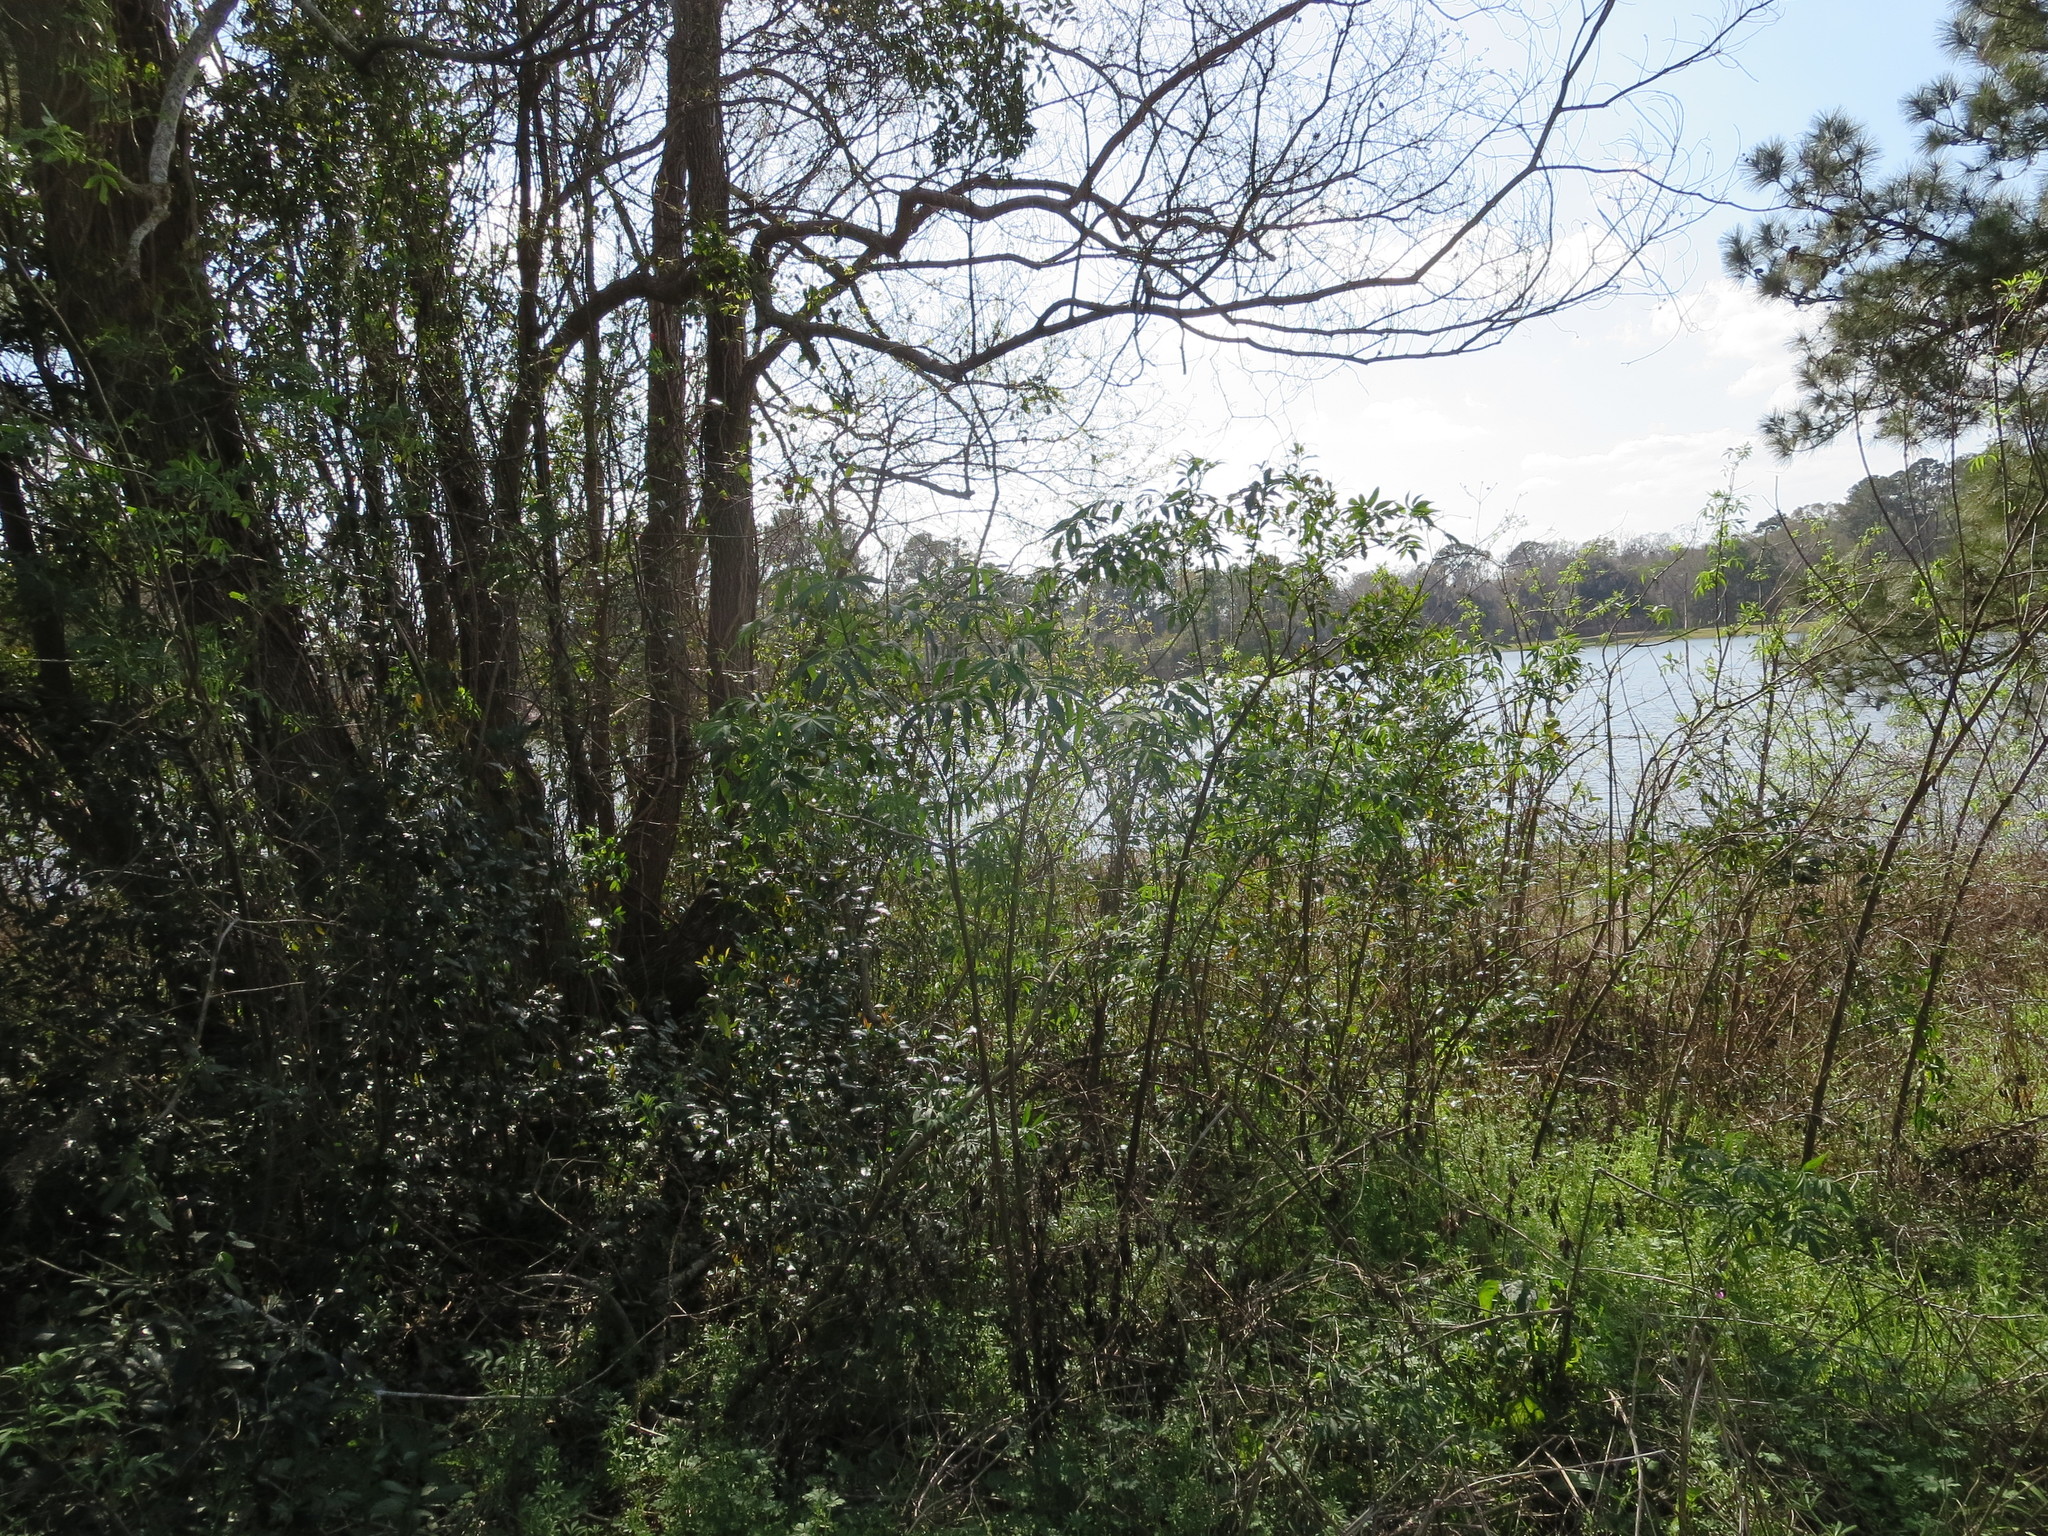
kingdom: Plantae
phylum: Tracheophyta
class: Magnoliopsida
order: Dipsacales
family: Viburnaceae
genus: Sambucus
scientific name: Sambucus canadensis
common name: American elder
